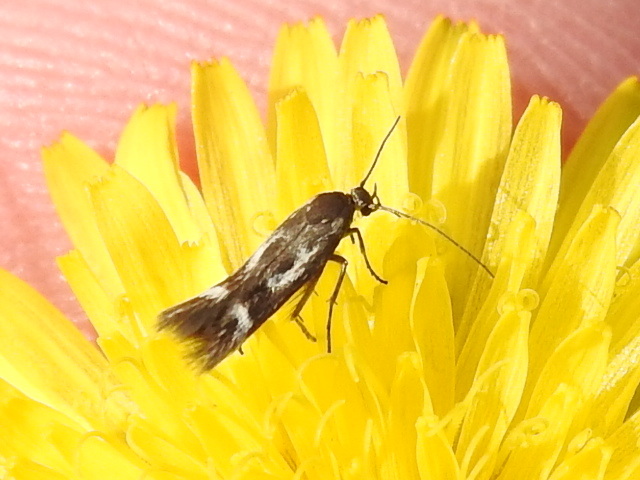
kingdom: Animalia
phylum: Arthropoda
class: Insecta
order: Lepidoptera
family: Scythrididae
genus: Scythris
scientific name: Scythris trivinctella
